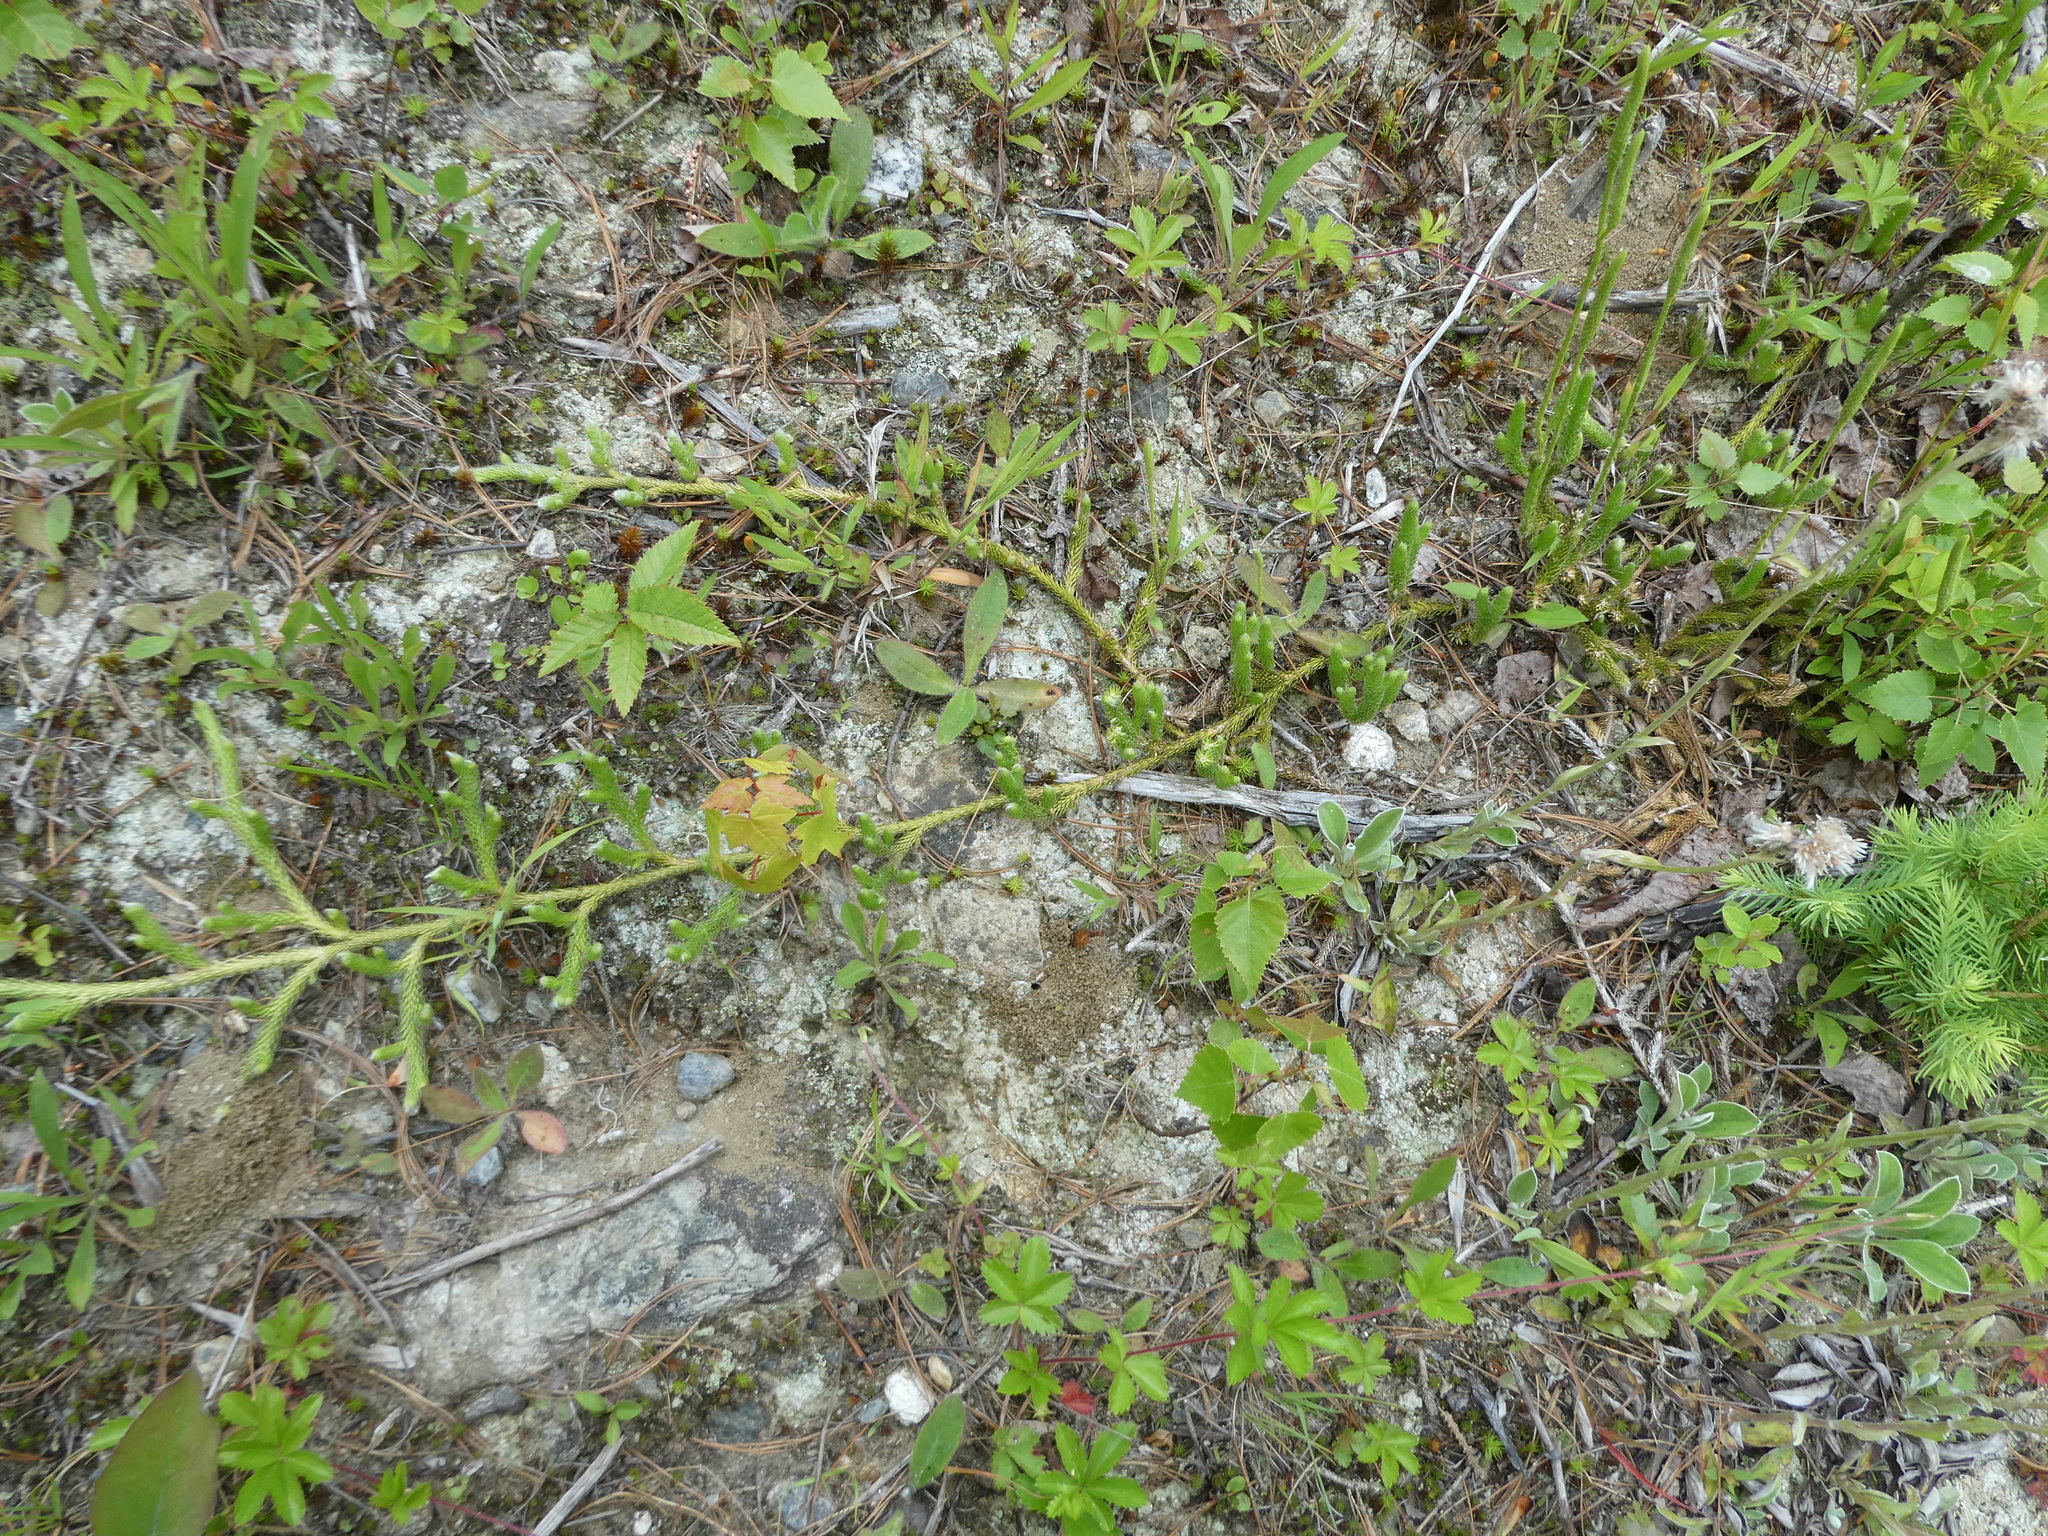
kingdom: Plantae
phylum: Tracheophyta
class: Lycopodiopsida
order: Lycopodiales
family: Lycopodiaceae
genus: Lycopodium
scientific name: Lycopodium clavatum
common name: Stag's-horn clubmoss
